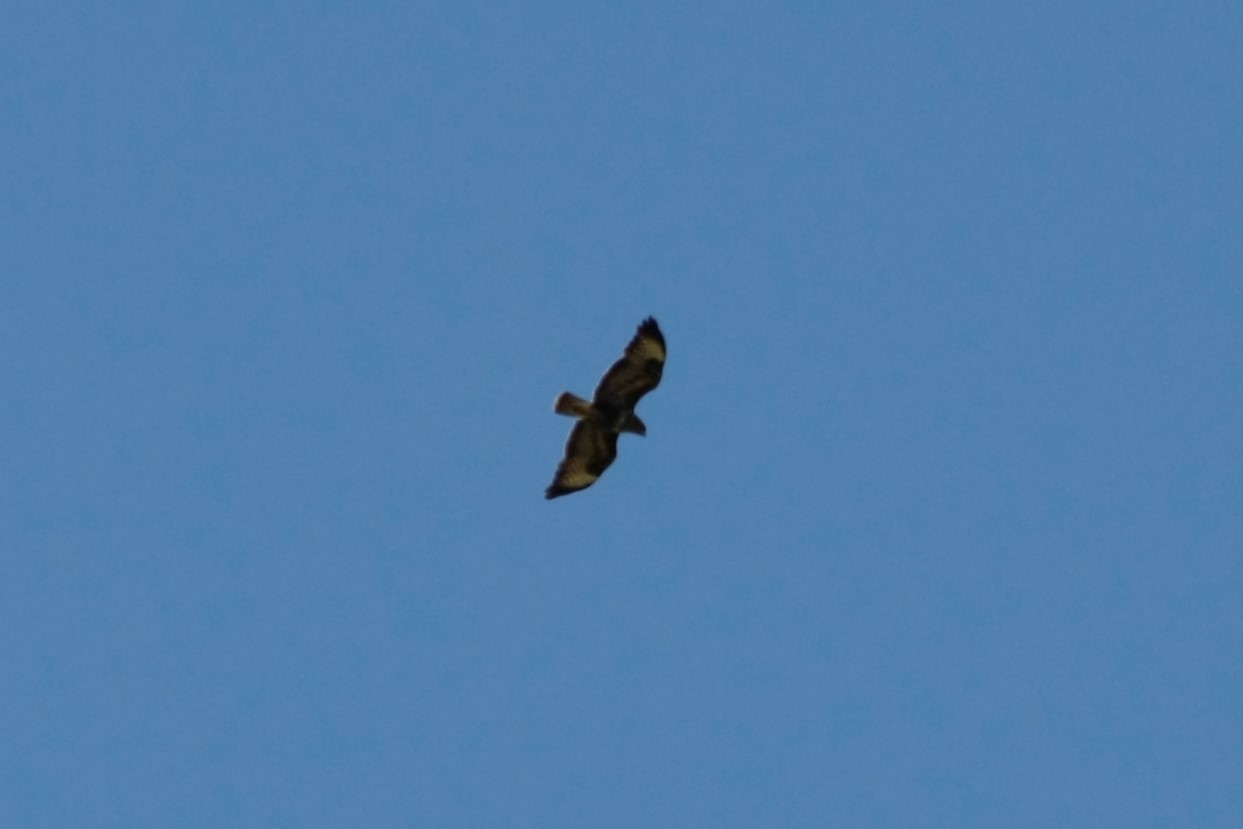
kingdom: Animalia
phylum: Chordata
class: Aves
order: Accipitriformes
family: Accipitridae
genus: Buteo
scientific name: Buteo buteo
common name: Common buzzard
